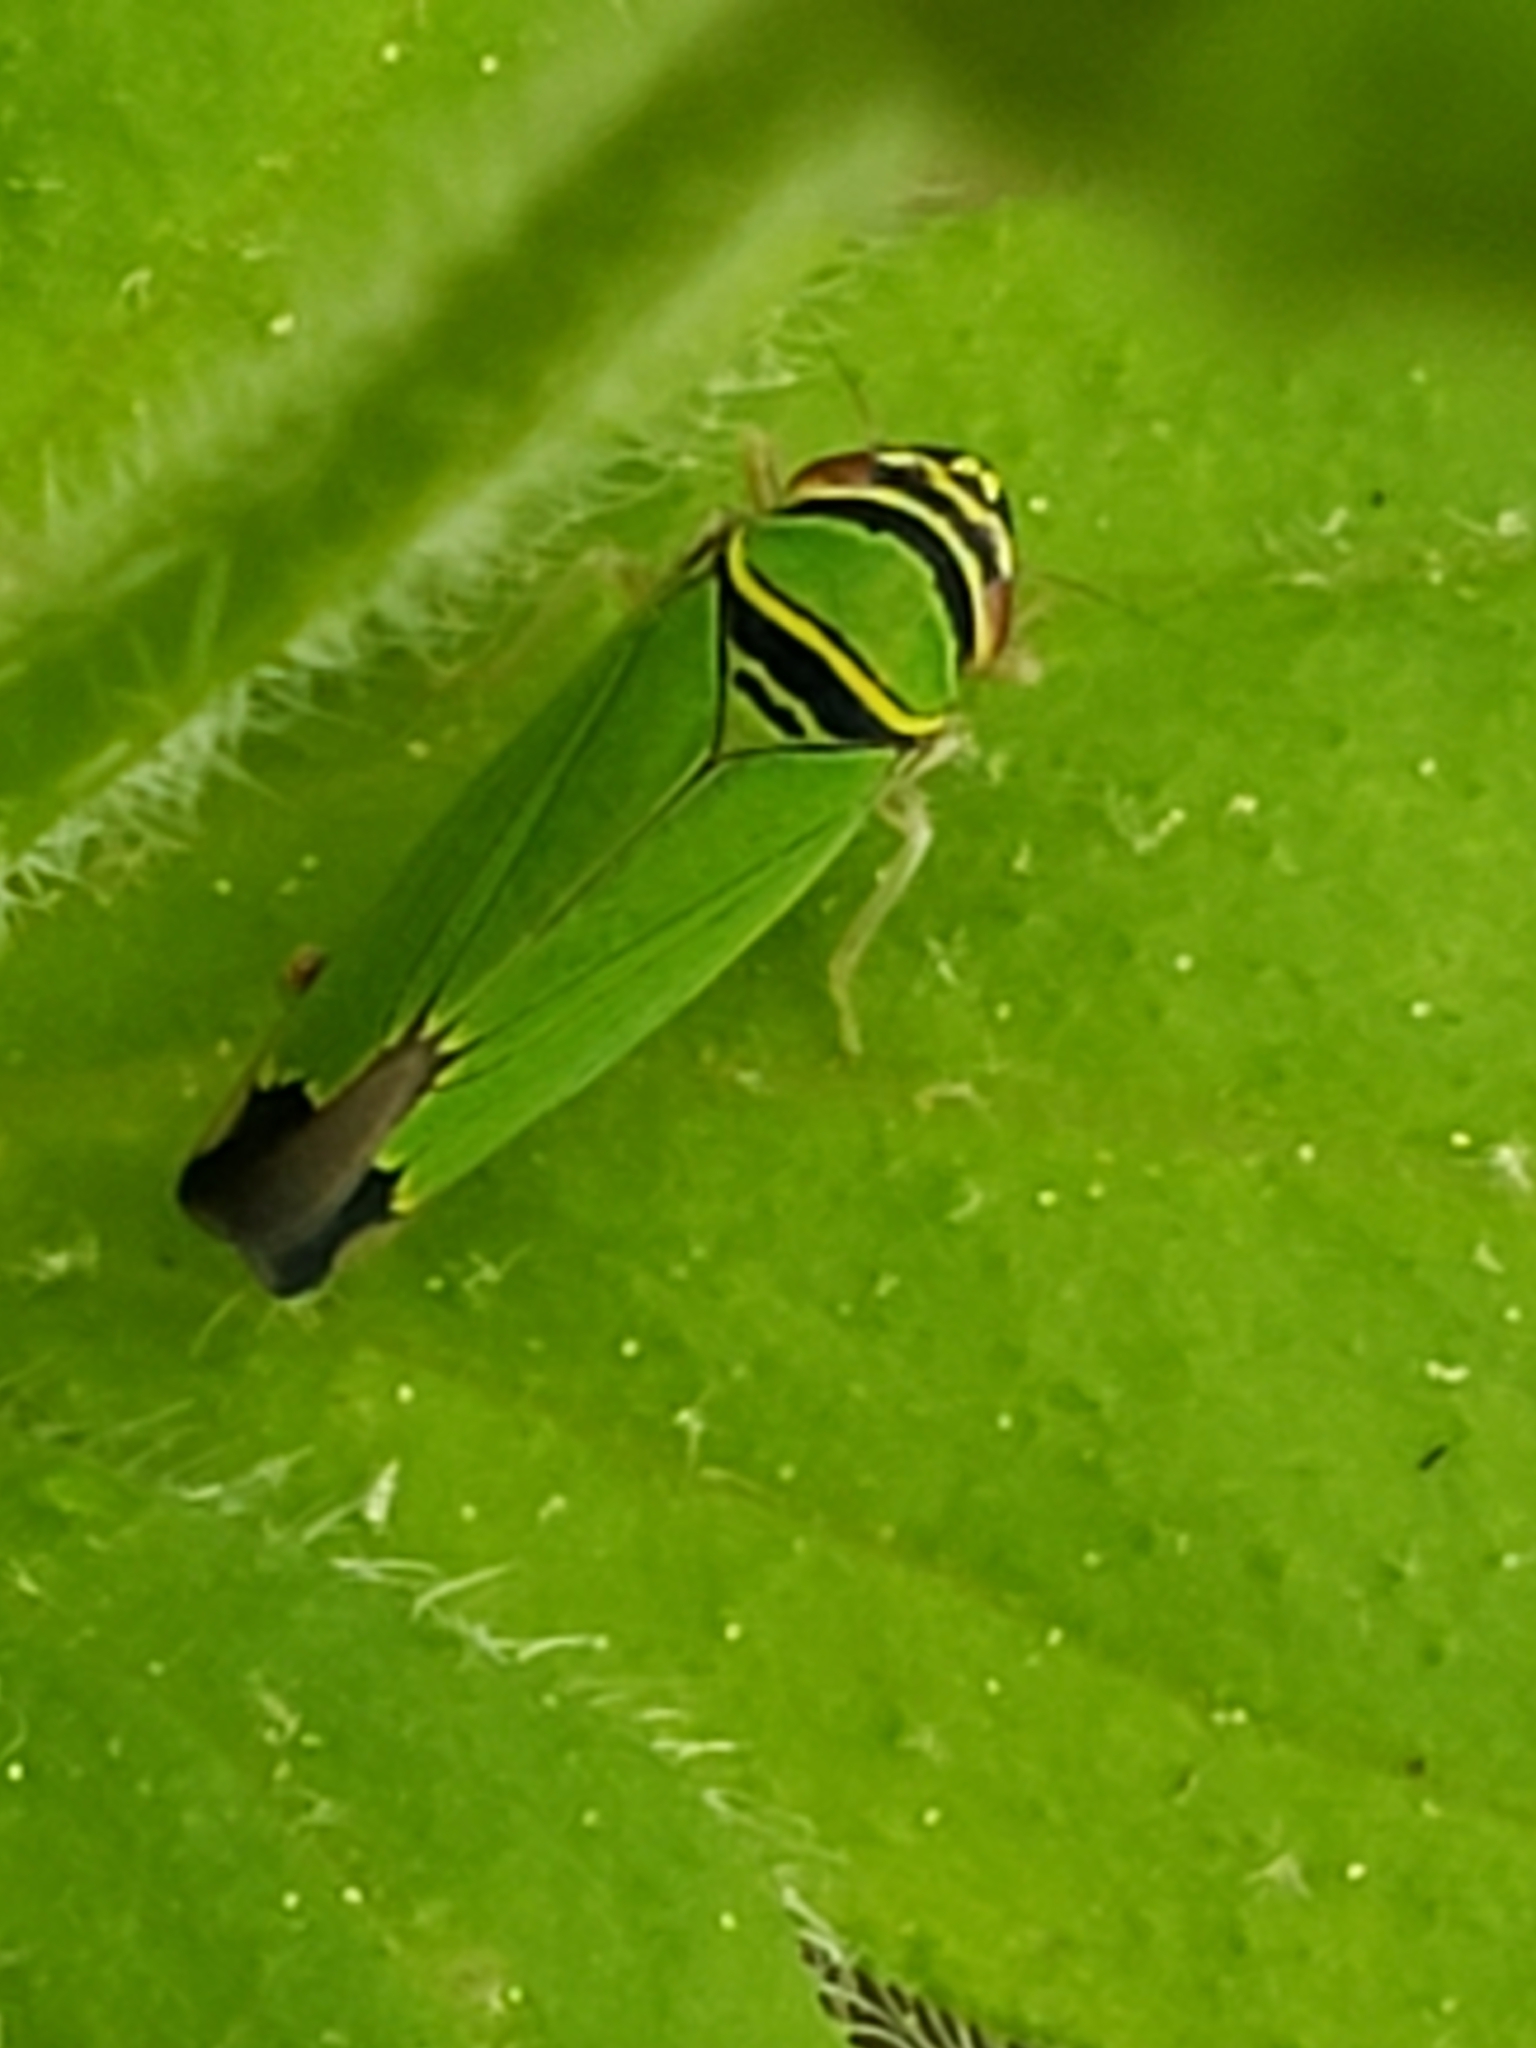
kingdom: Animalia
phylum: Arthropoda
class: Insecta
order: Hemiptera
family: Cicadellidae
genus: Tylozygus
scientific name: Tylozygus geometricus
